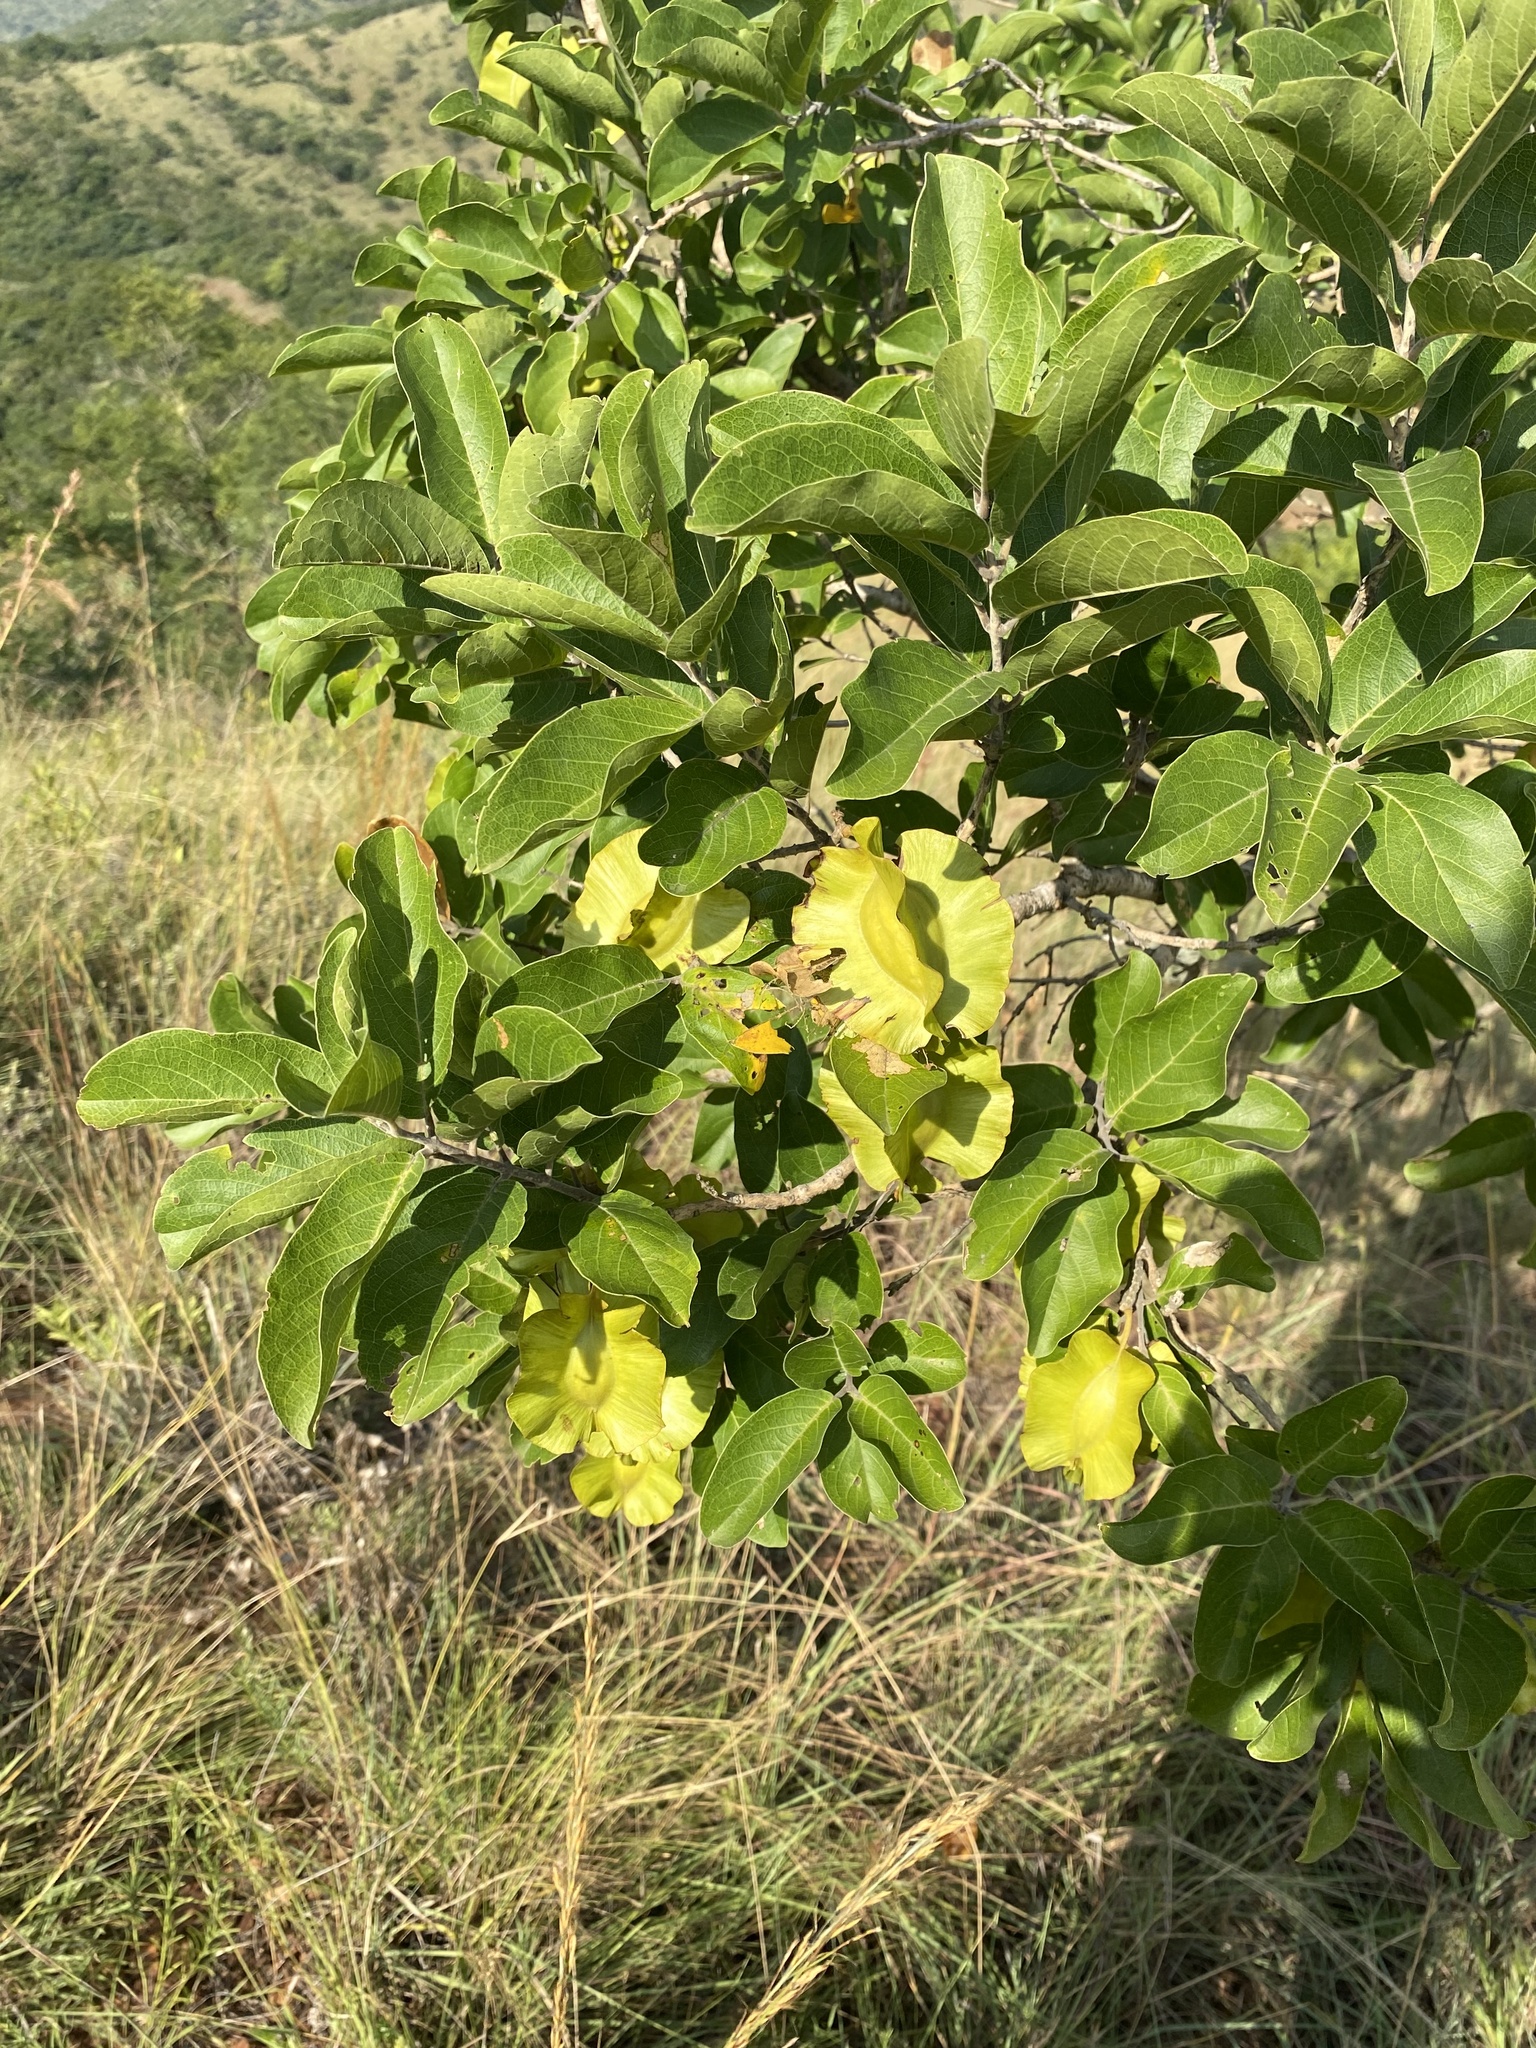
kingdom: Plantae
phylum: Tracheophyta
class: Magnoliopsida
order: Myrtales
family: Combretaceae
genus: Combretum
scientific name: Combretum zeyheri
